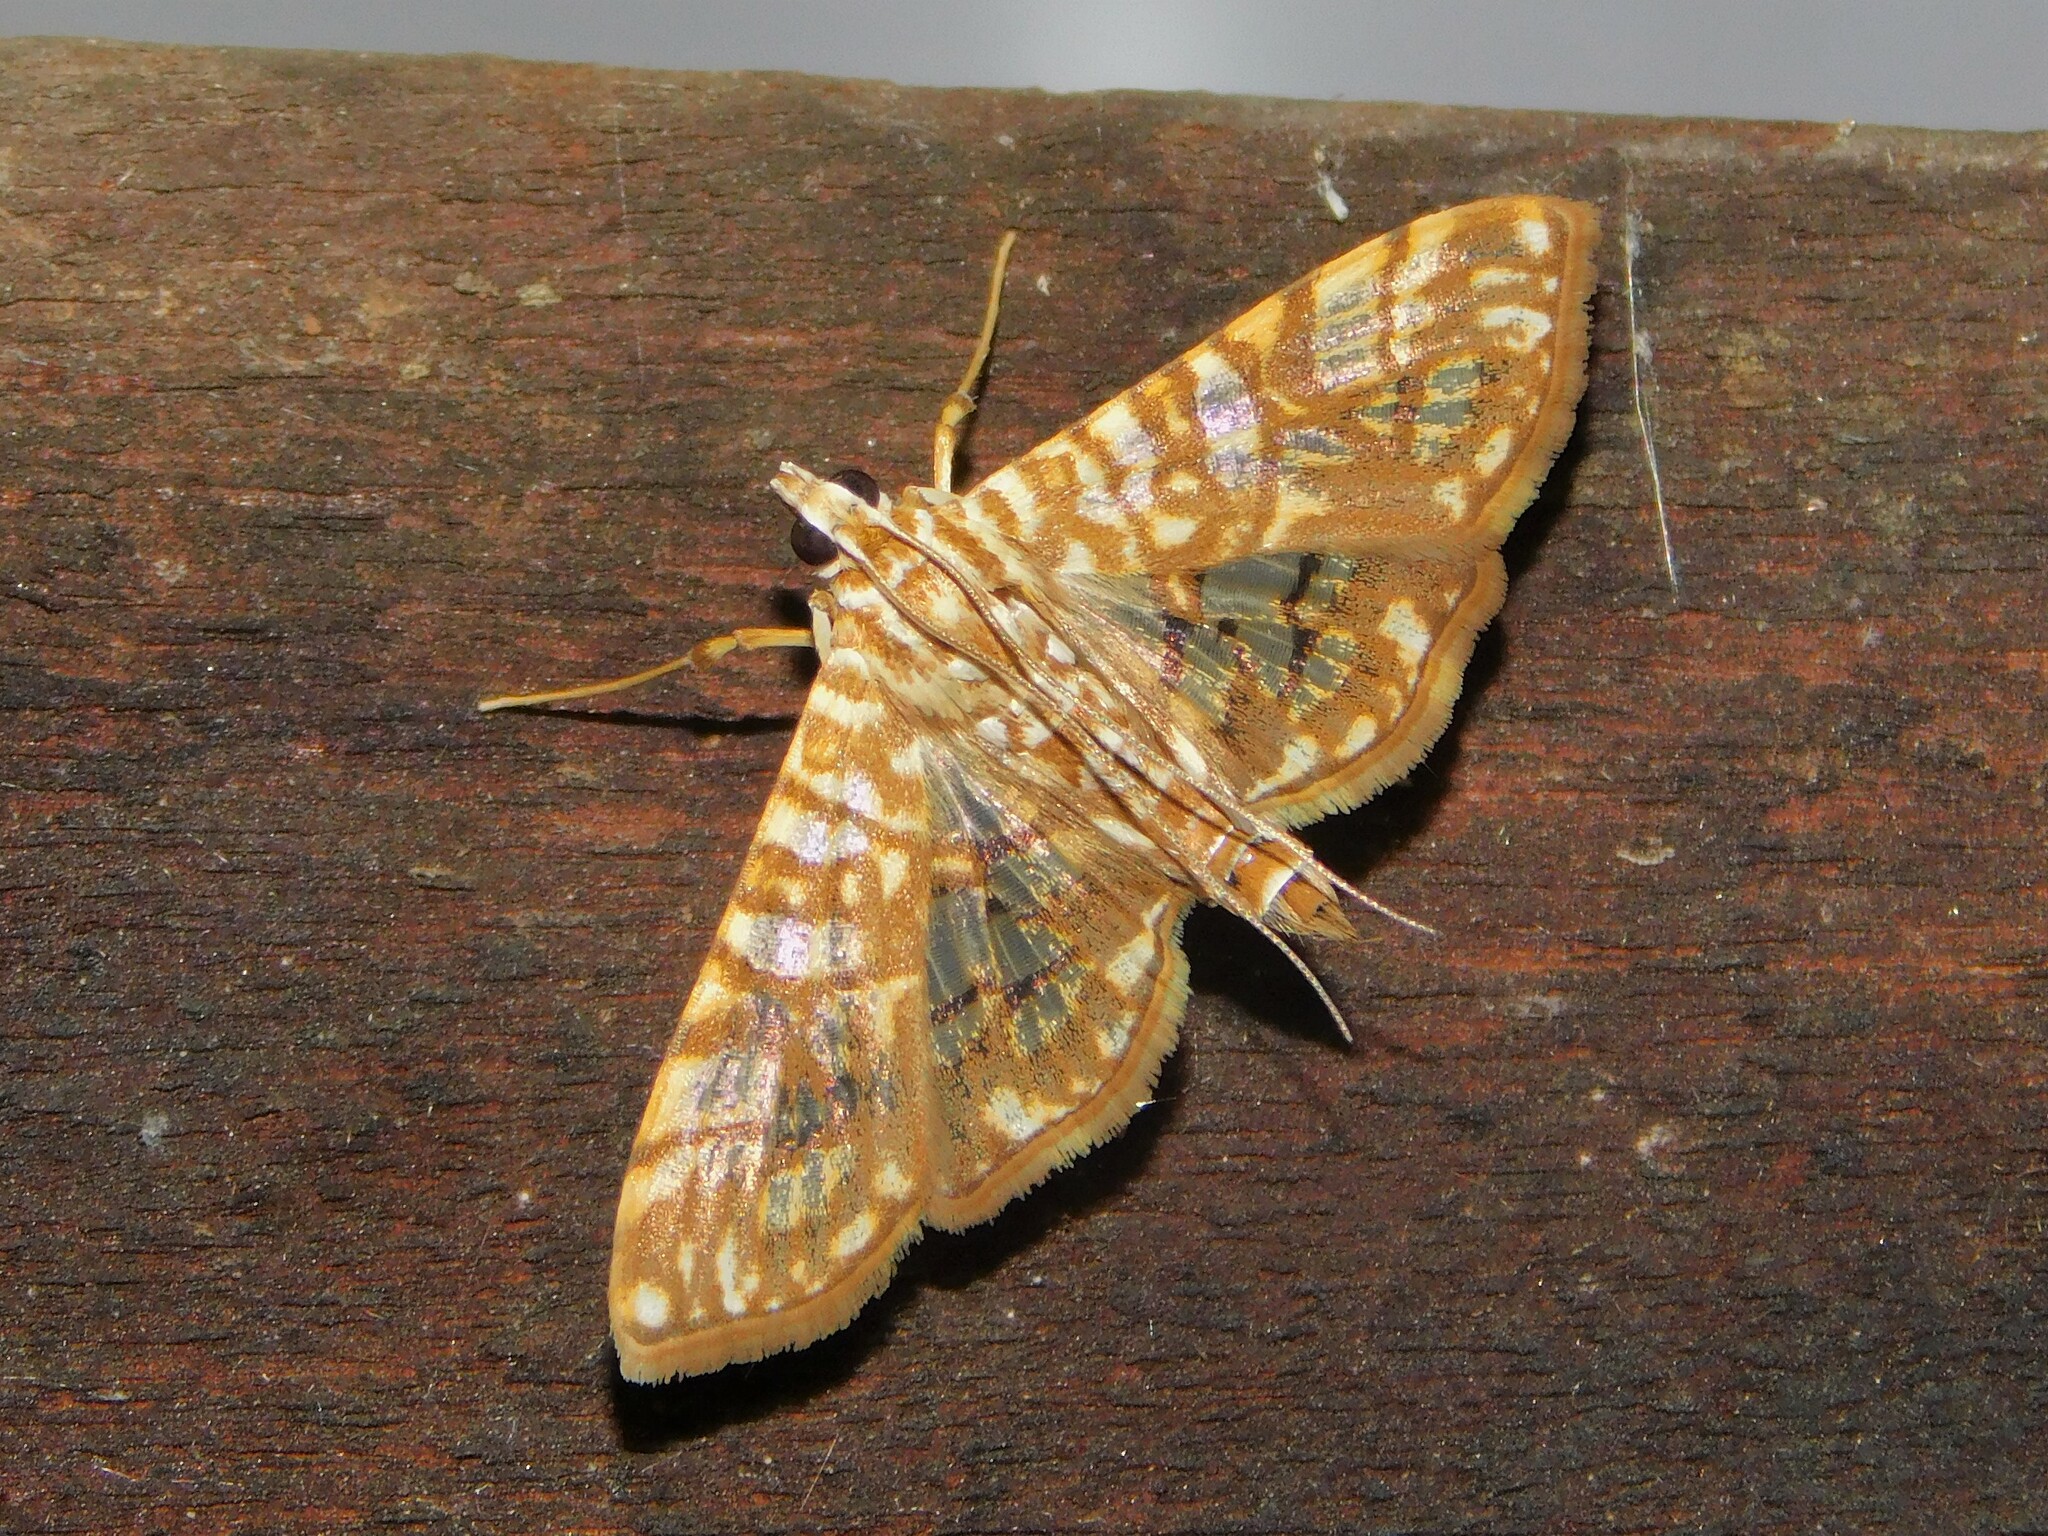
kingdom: Animalia
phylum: Arthropoda
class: Insecta
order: Lepidoptera
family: Crambidae
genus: Synclera
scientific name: Synclera traducalis
